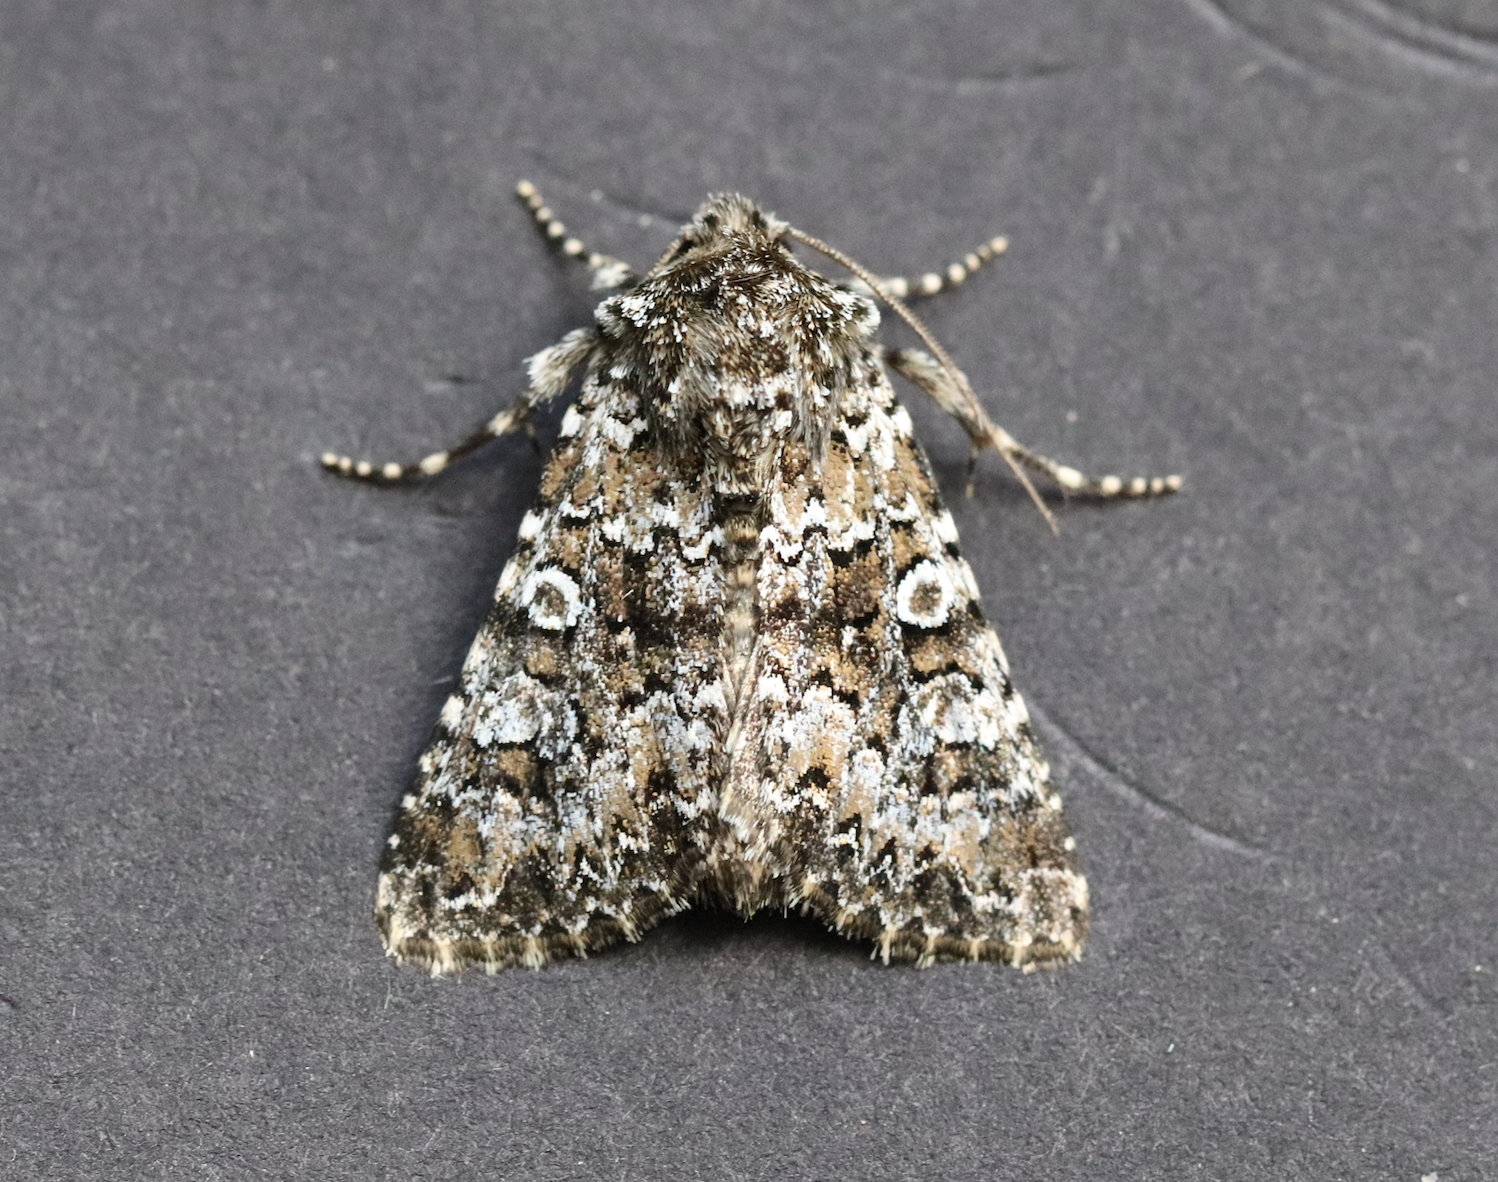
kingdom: Animalia
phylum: Arthropoda
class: Insecta
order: Lepidoptera
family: Noctuidae
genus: Hadena
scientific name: Hadena magnolii
